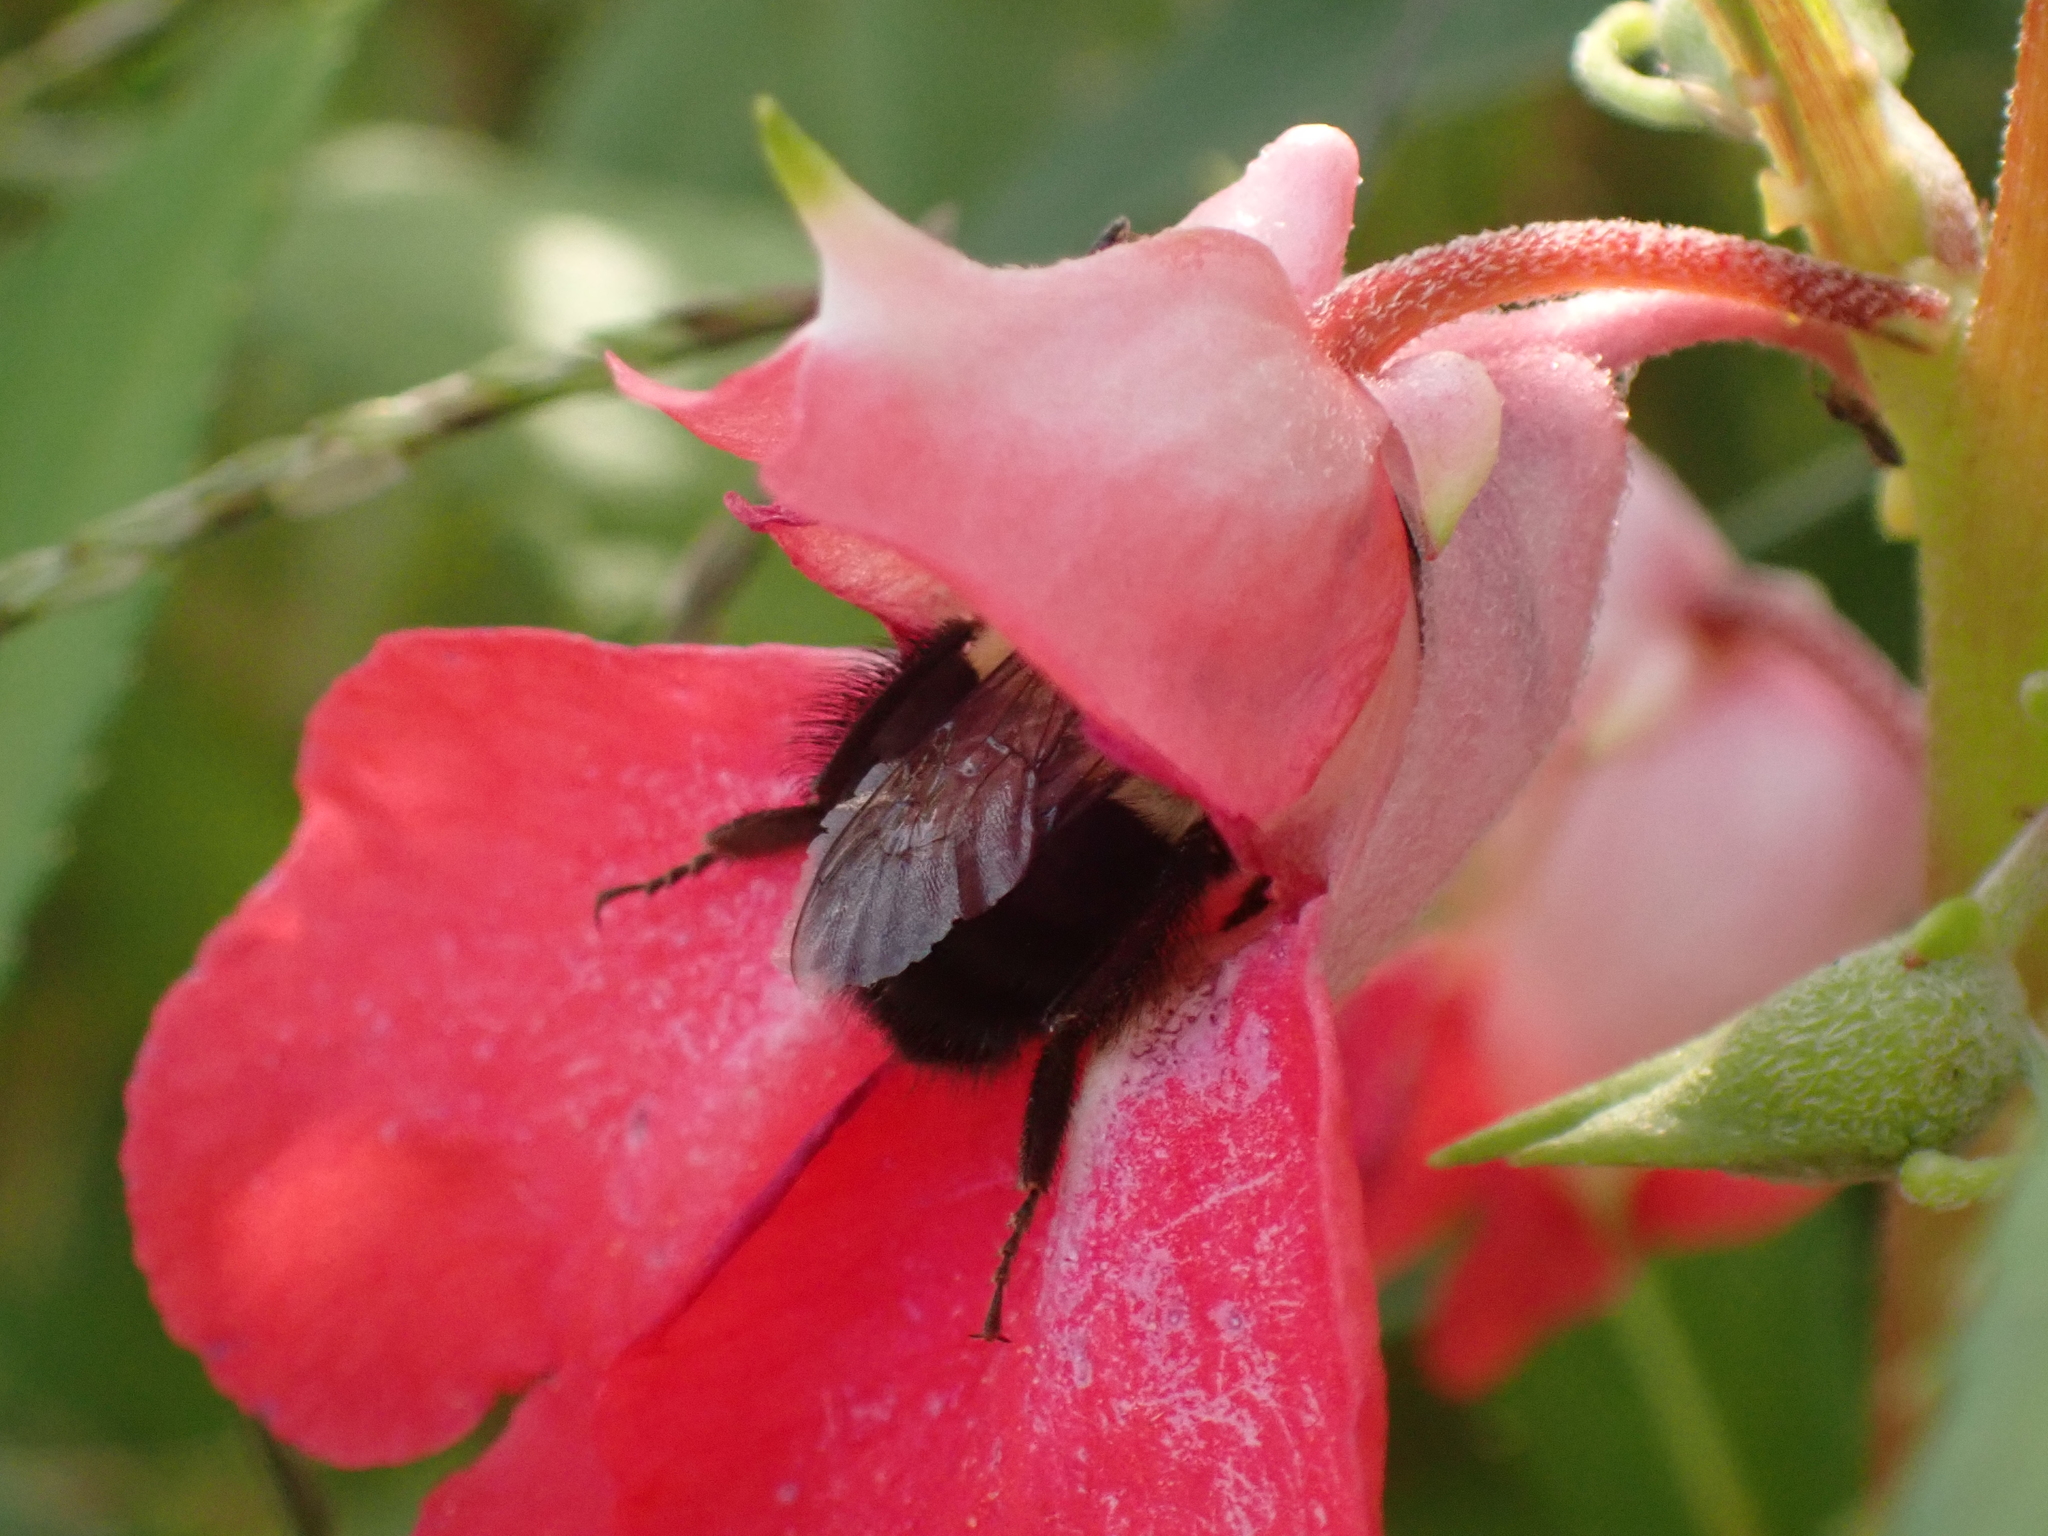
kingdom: Animalia
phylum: Arthropoda
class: Insecta
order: Hymenoptera
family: Apidae
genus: Bombus
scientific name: Bombus impatiens
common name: Common eastern bumble bee
